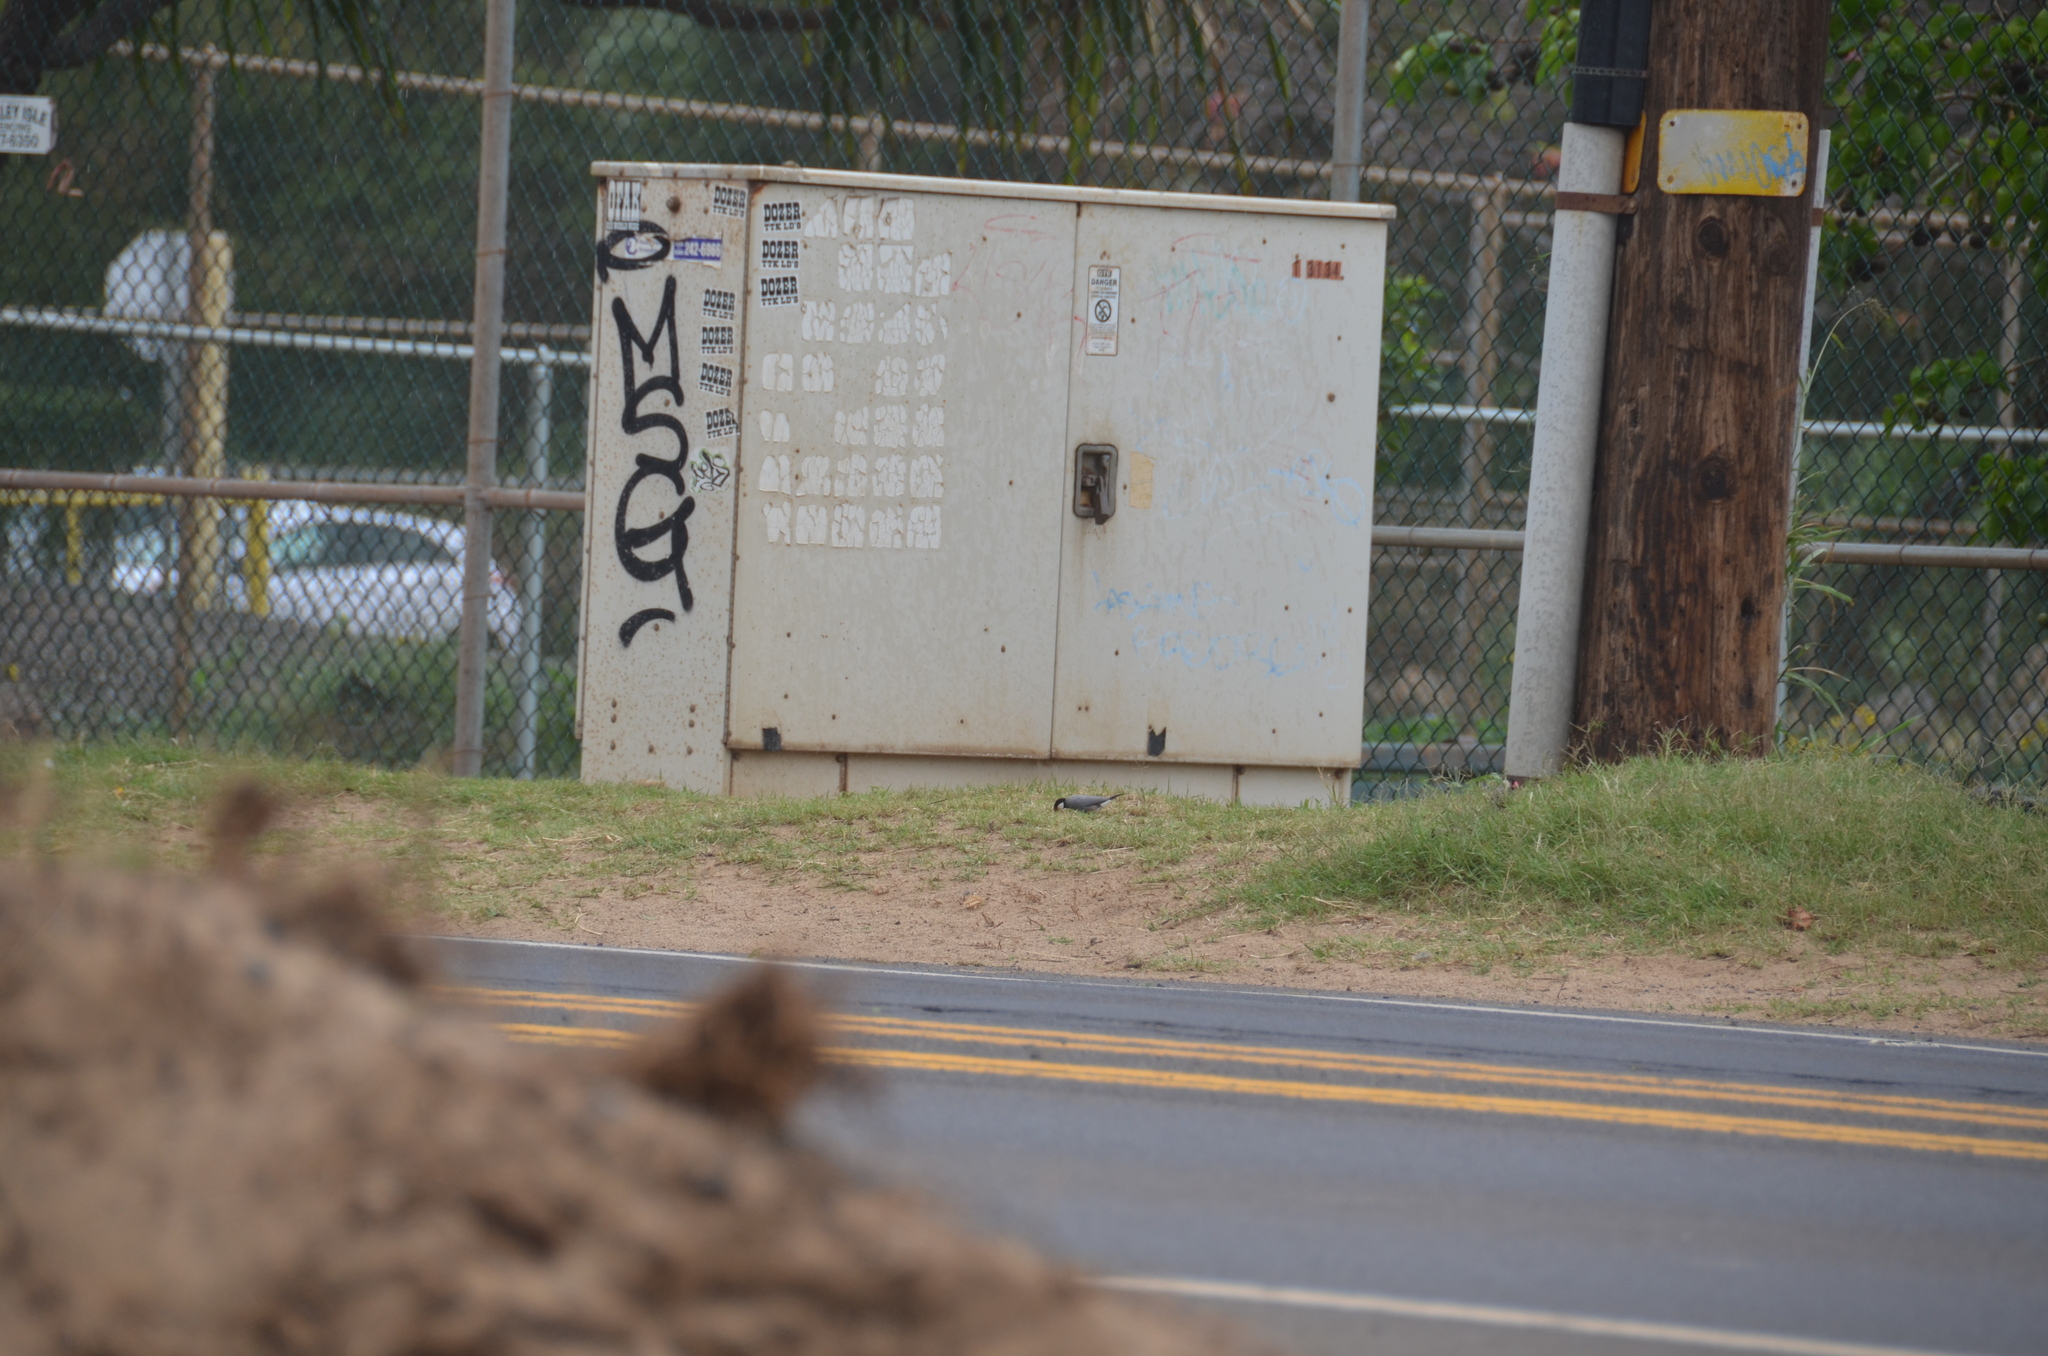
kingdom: Animalia
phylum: Chordata
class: Aves
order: Passeriformes
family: Estrildidae
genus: Lonchura
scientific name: Lonchura oryzivora
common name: Java sparrow
